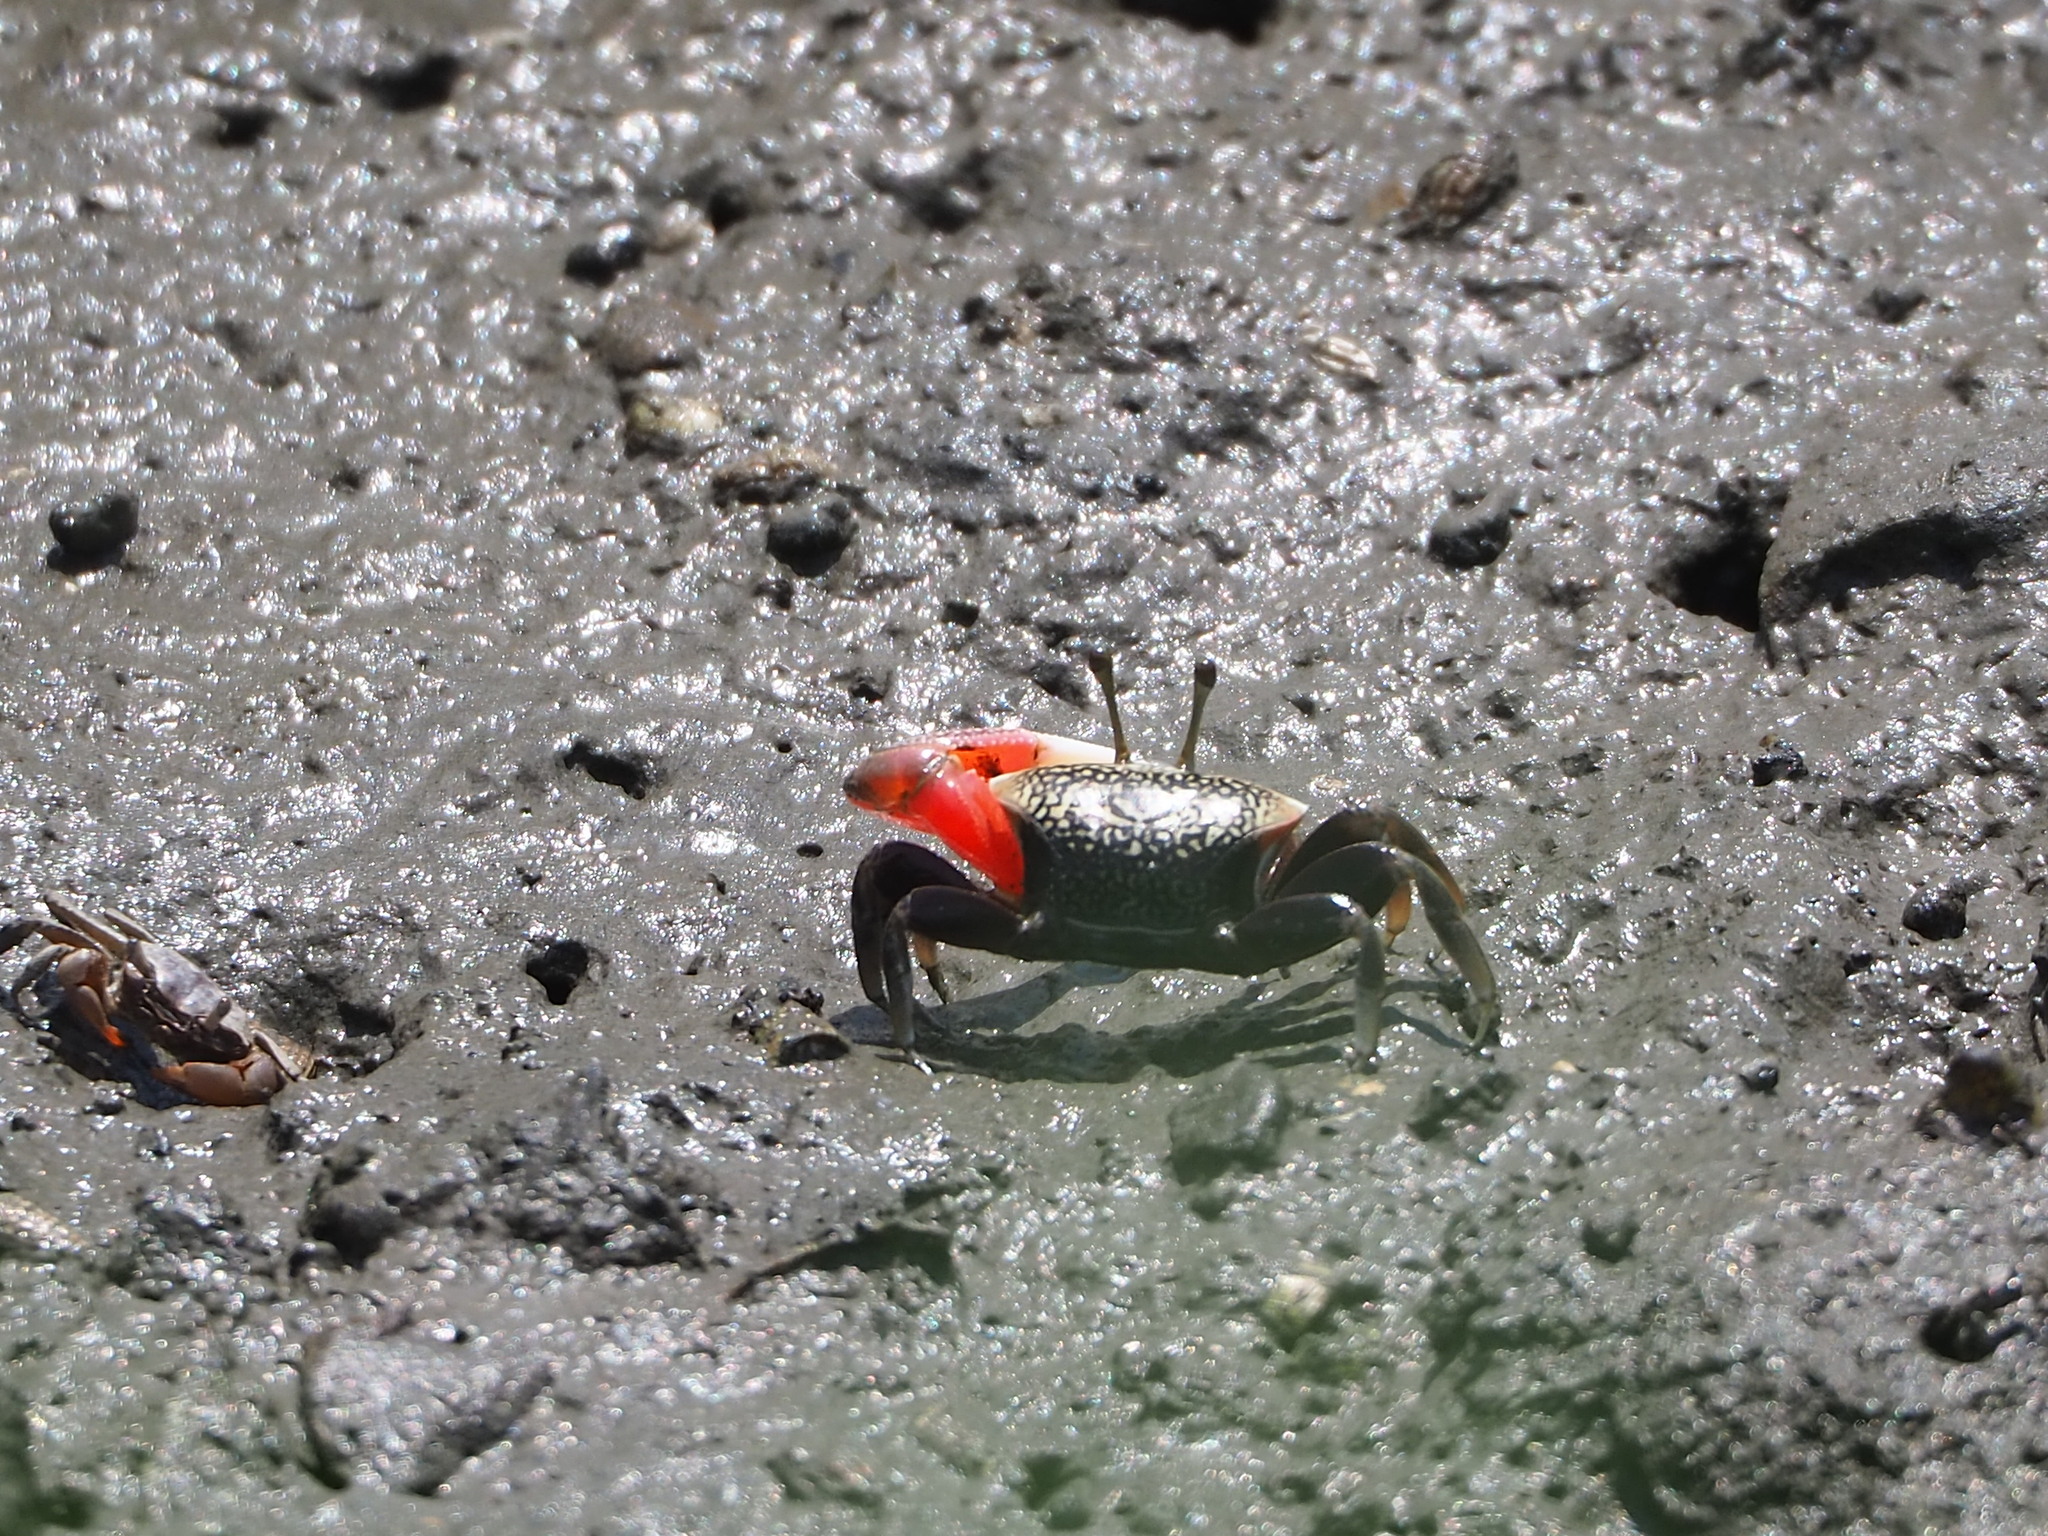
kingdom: Animalia
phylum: Arthropoda
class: Malacostraca
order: Decapoda
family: Ocypodidae
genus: Tubuca
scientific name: Tubuca arcuata
